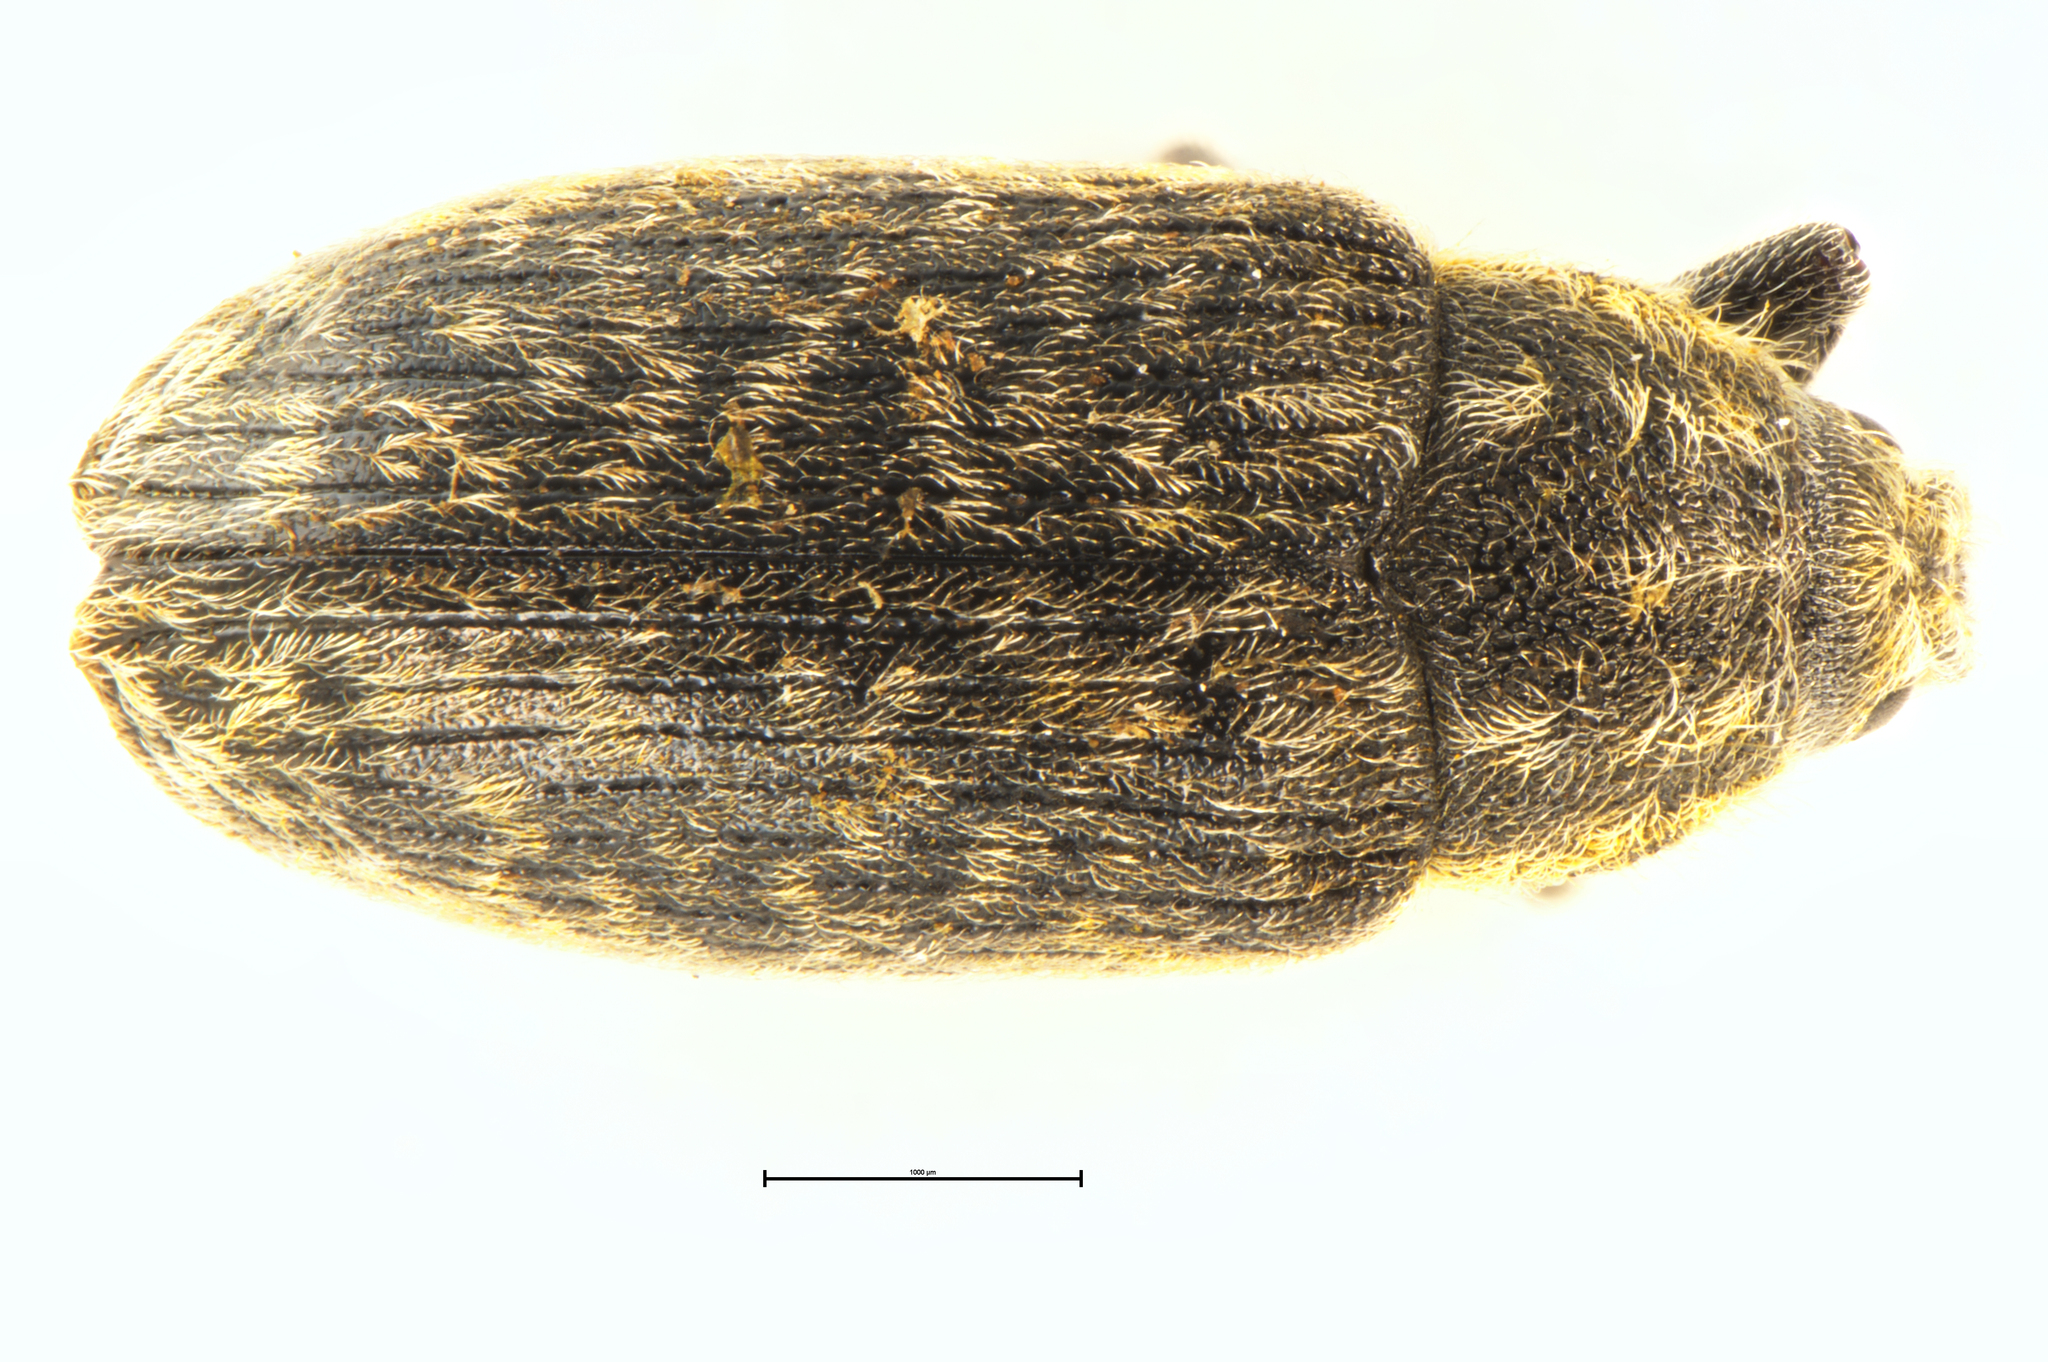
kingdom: Animalia
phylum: Arthropoda
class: Insecta
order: Coleoptera
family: Curculionidae
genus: Rhinocyllus
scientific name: Rhinocyllus conicus
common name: Weevil
